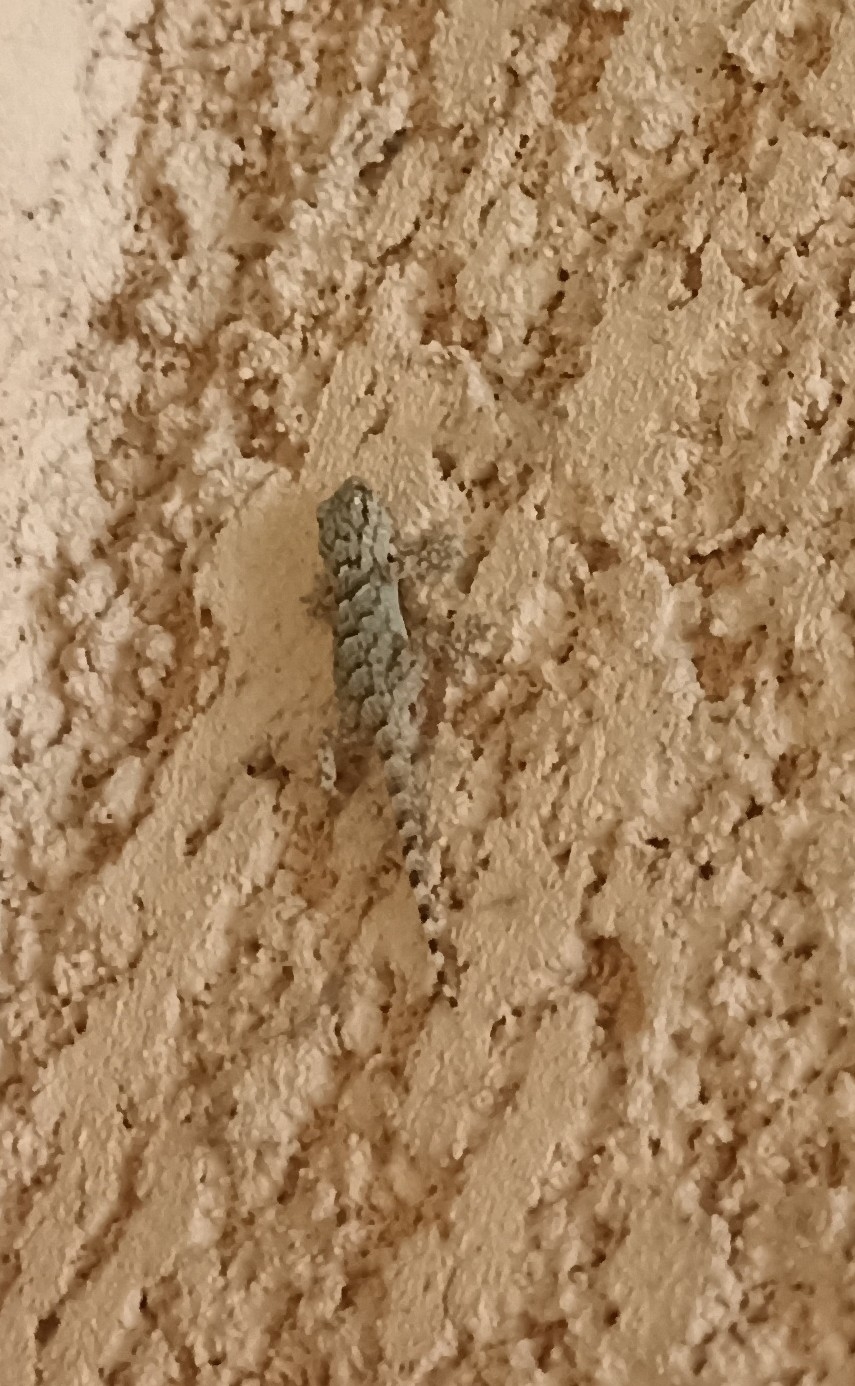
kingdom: Animalia
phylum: Chordata
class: Squamata
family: Phyllodactylidae
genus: Tarentola
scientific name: Tarentola mauritanica
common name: Moorish gecko
